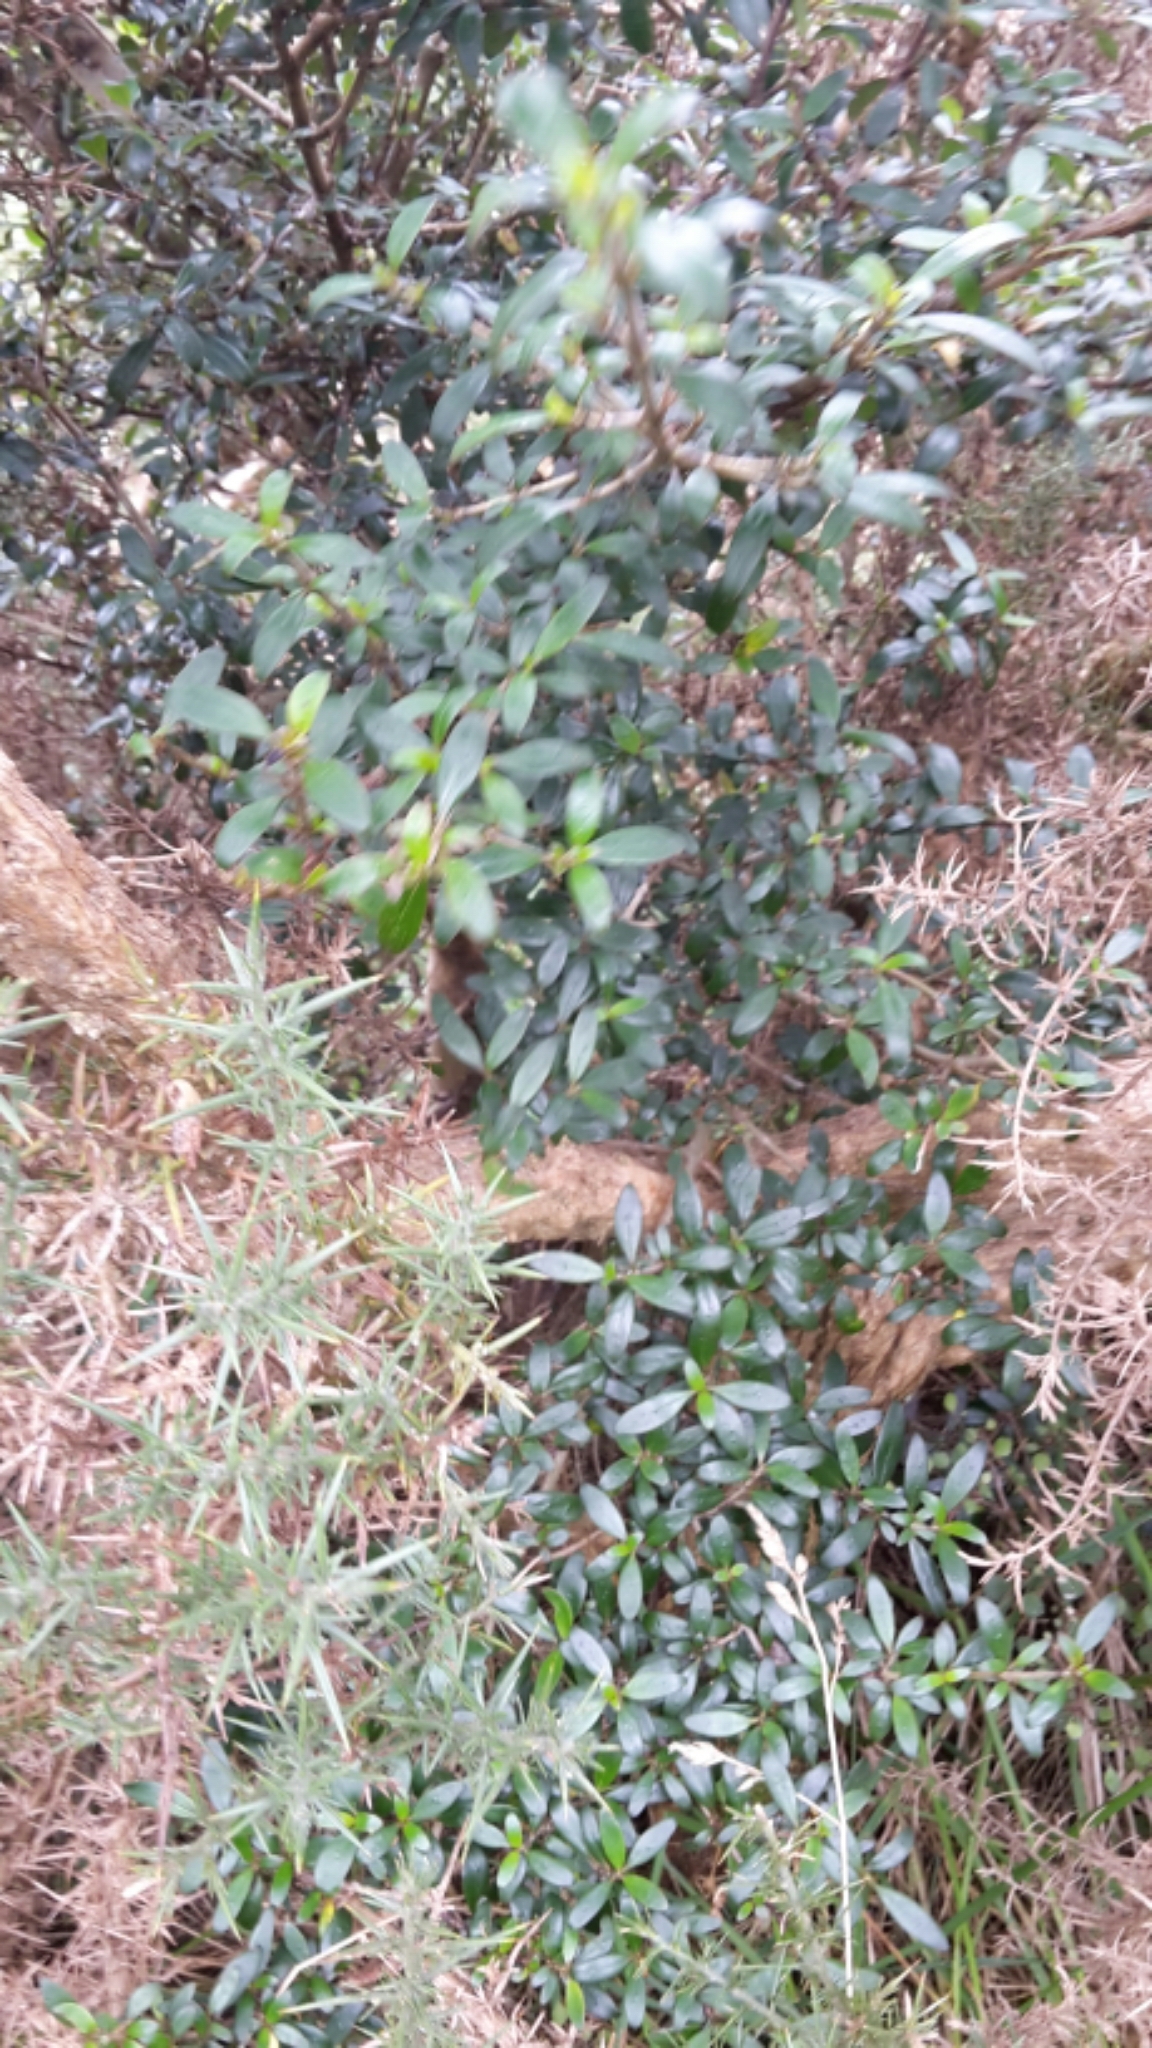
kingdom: Plantae
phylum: Tracheophyta
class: Magnoliopsida
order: Gentianales
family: Rubiaceae
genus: Coprosma
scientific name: Coprosma cunninghamii
